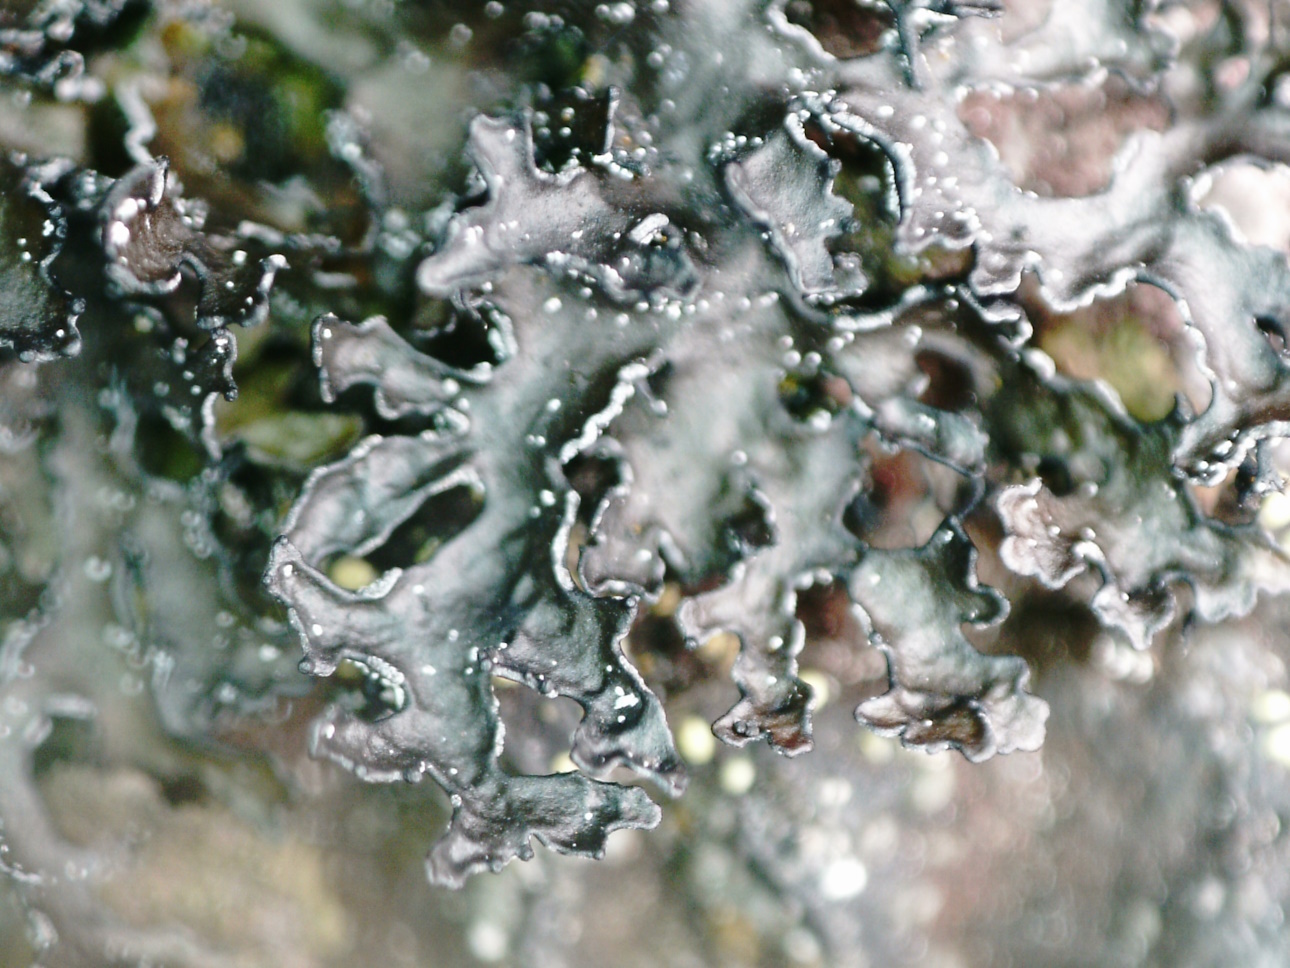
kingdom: Fungi
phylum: Ascomycota
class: Lecanoromycetes
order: Lecanorales
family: Parmeliaceae
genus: Melanelia
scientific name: Melanelia commixta
